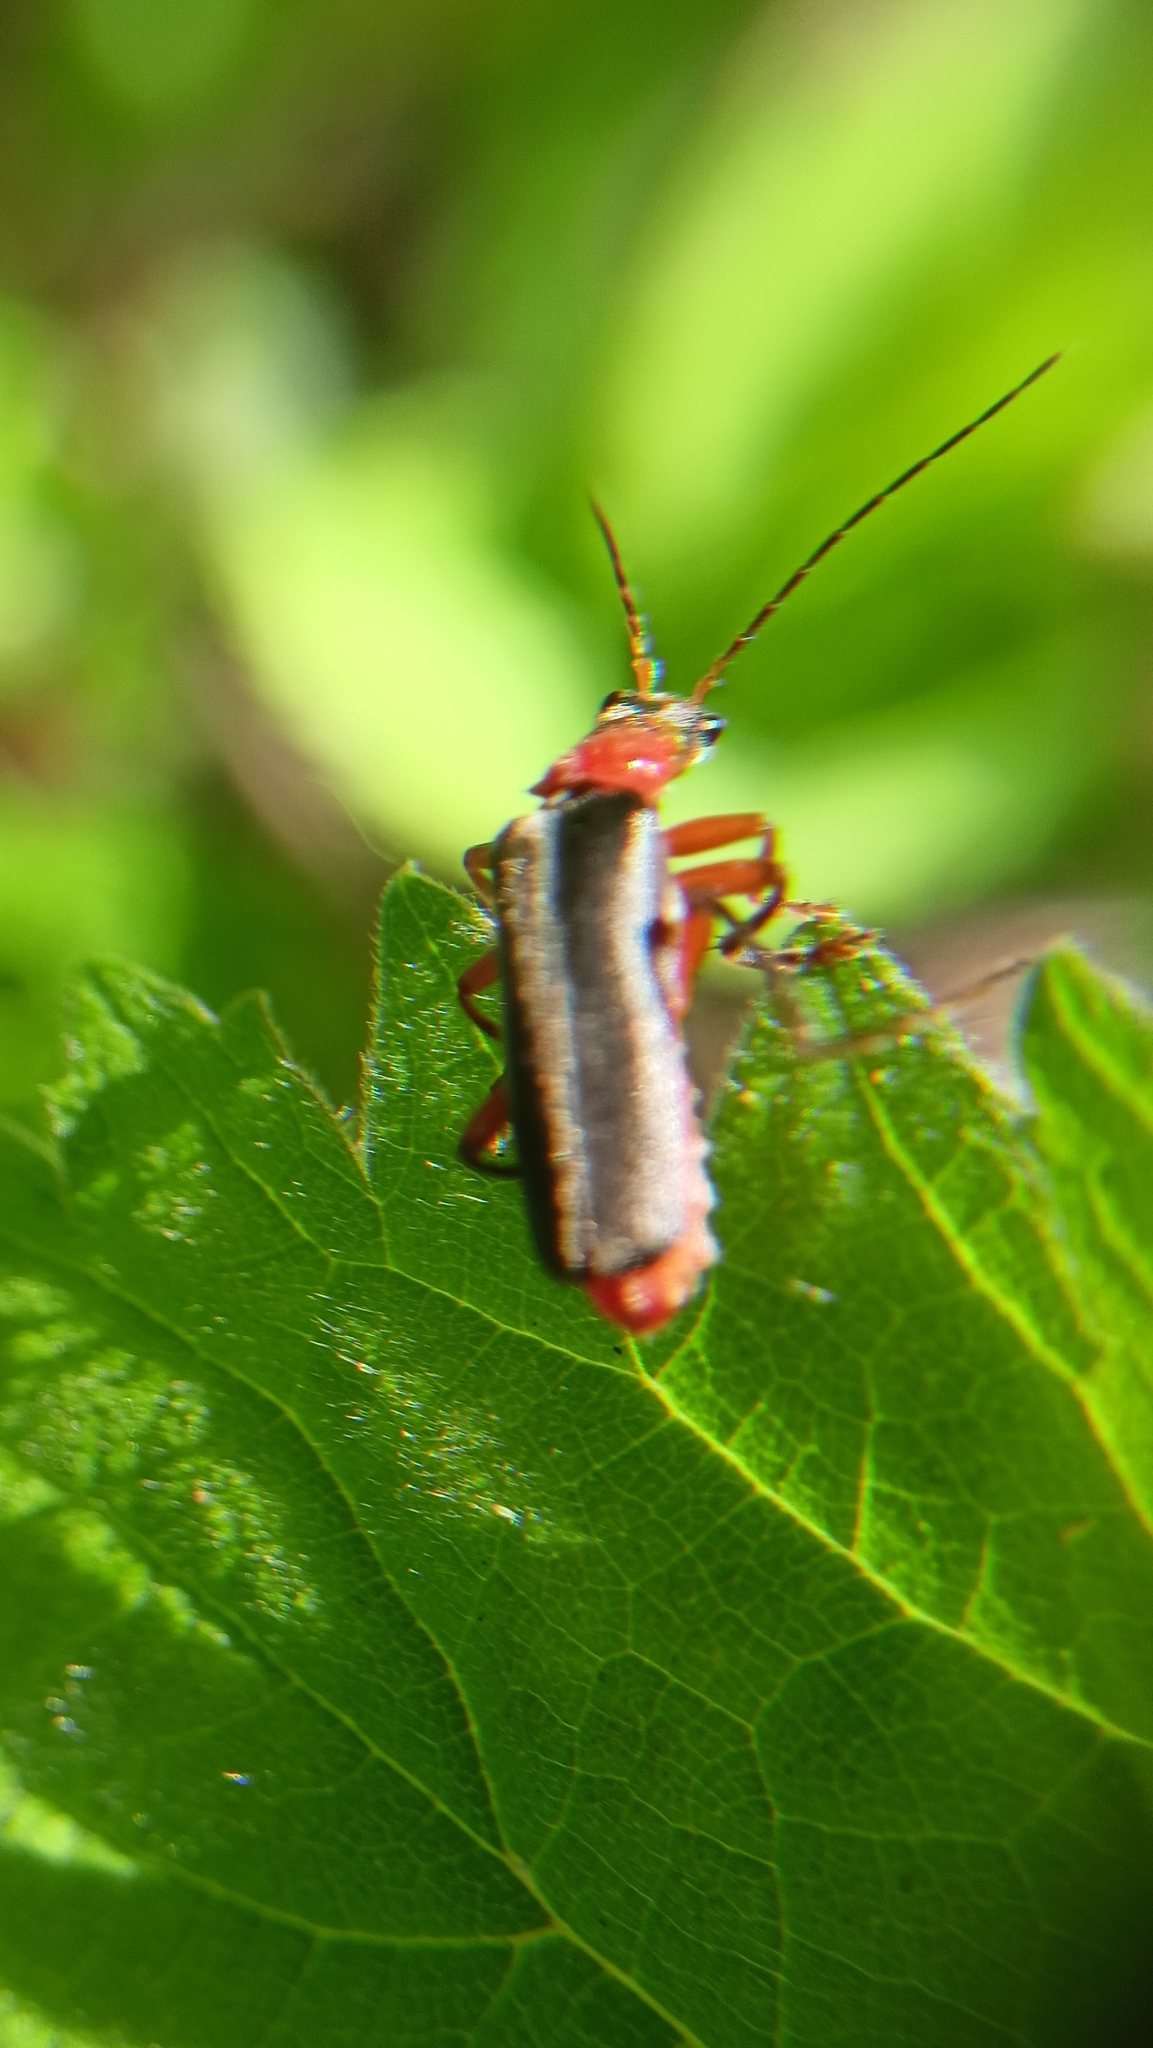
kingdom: Animalia
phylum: Arthropoda
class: Insecta
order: Coleoptera
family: Cantharidae
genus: Cantharis
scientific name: Cantharis pellucida
